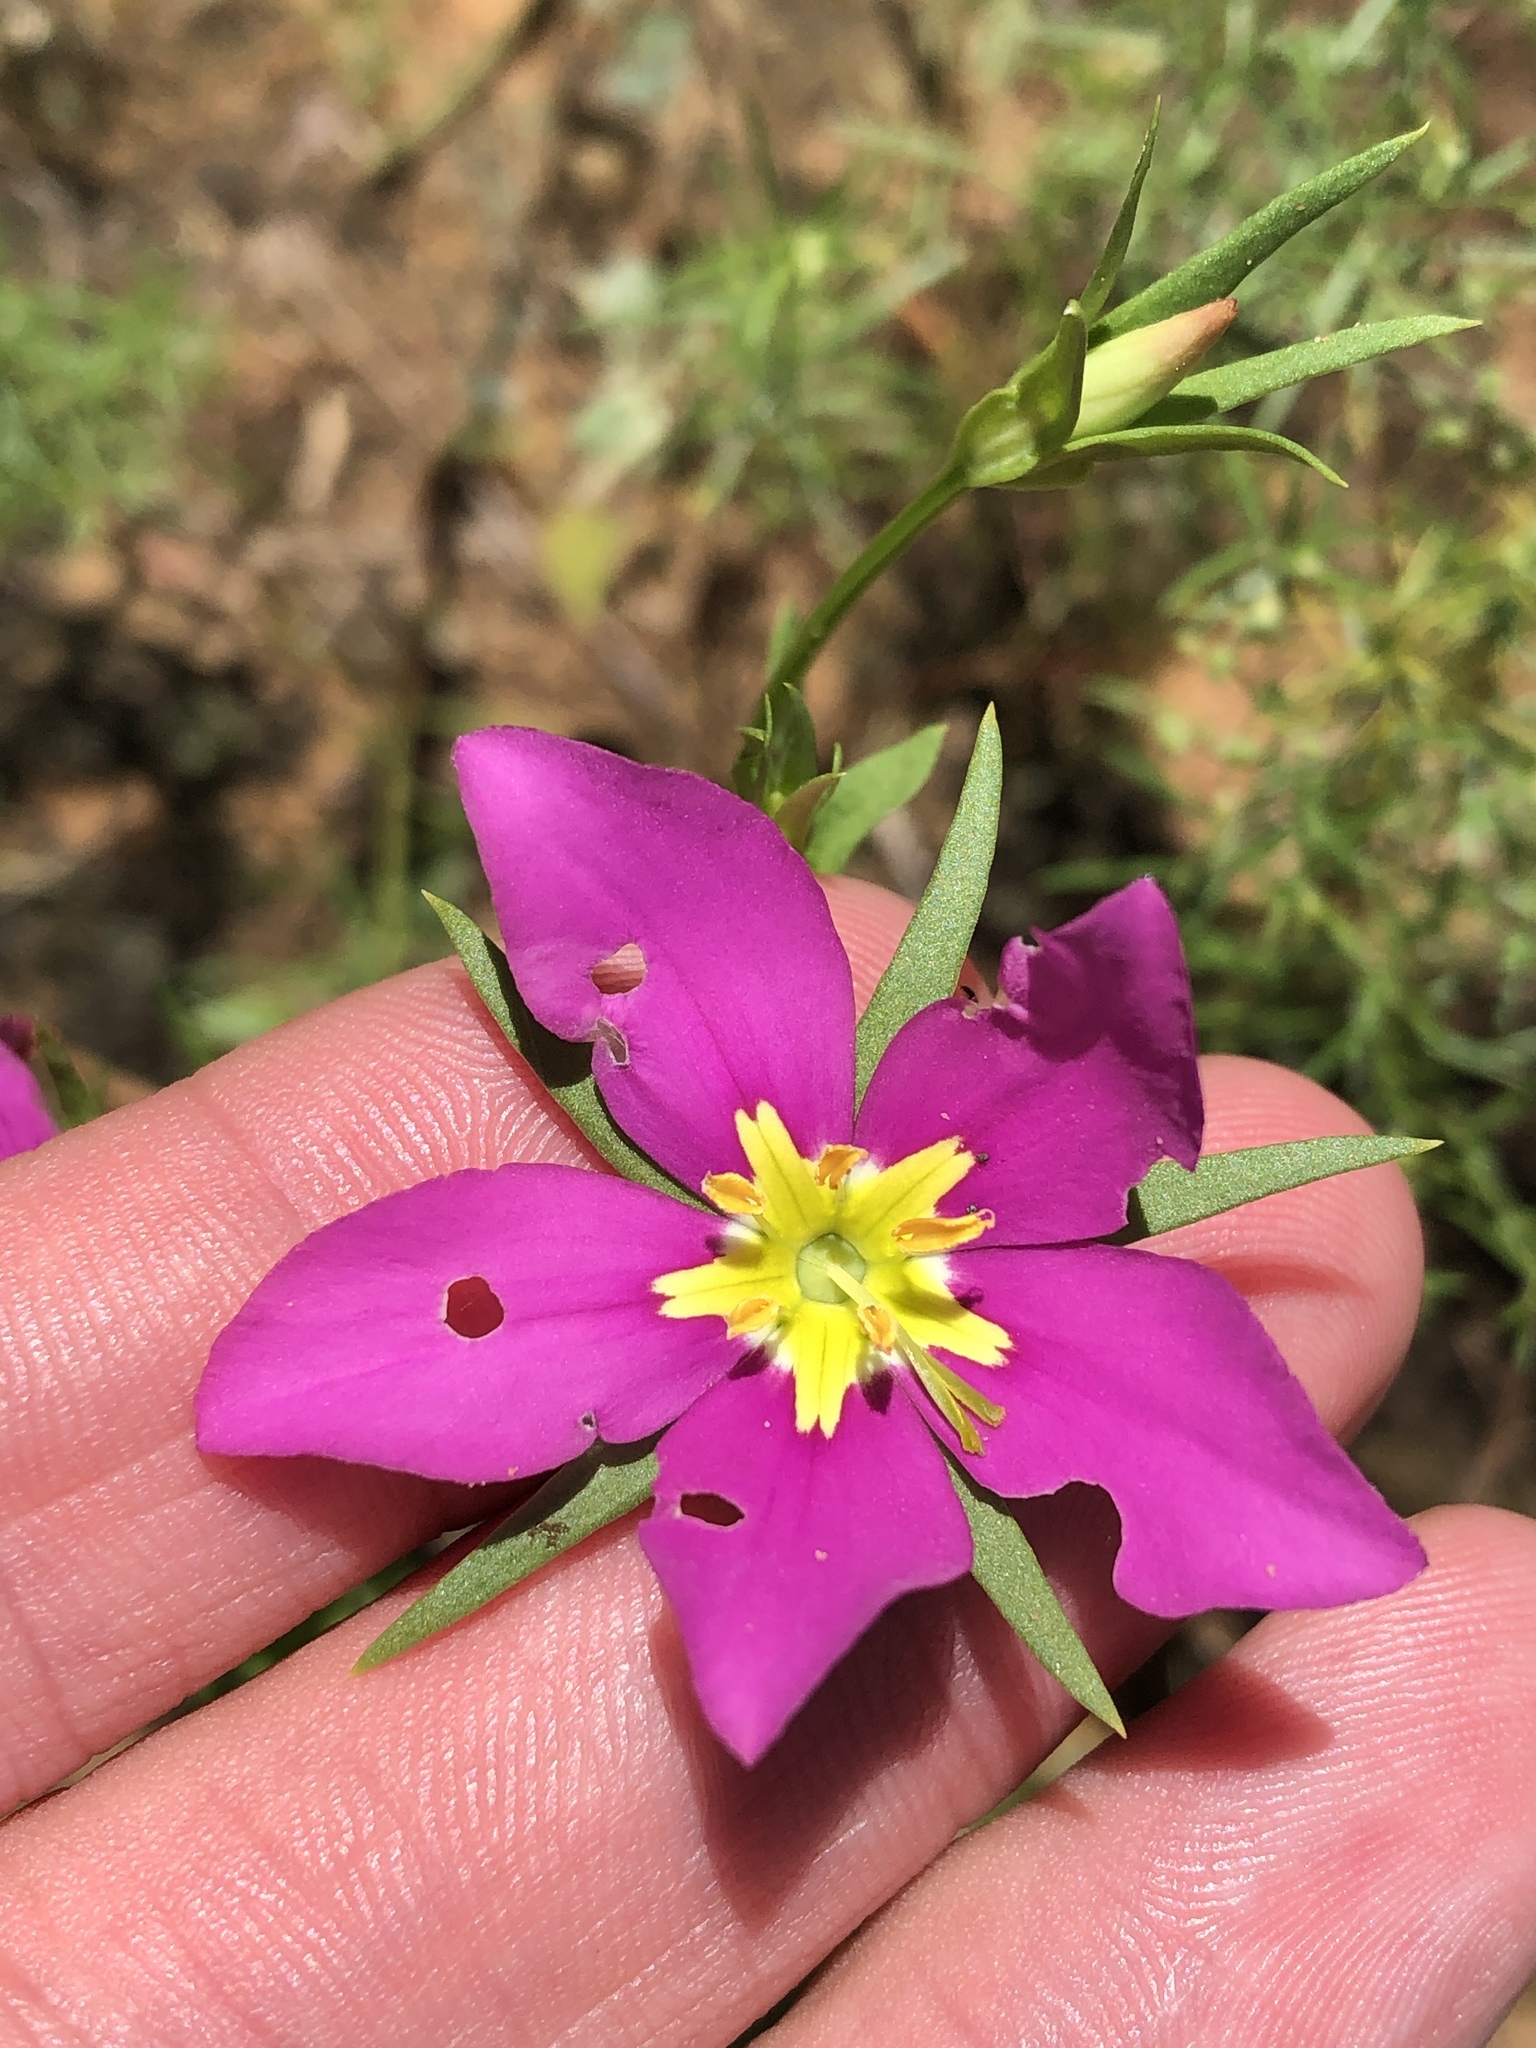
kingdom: Plantae
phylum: Tracheophyta
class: Magnoliopsida
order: Gentianales
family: Gentianaceae
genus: Sabatia
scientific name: Sabatia campestris
